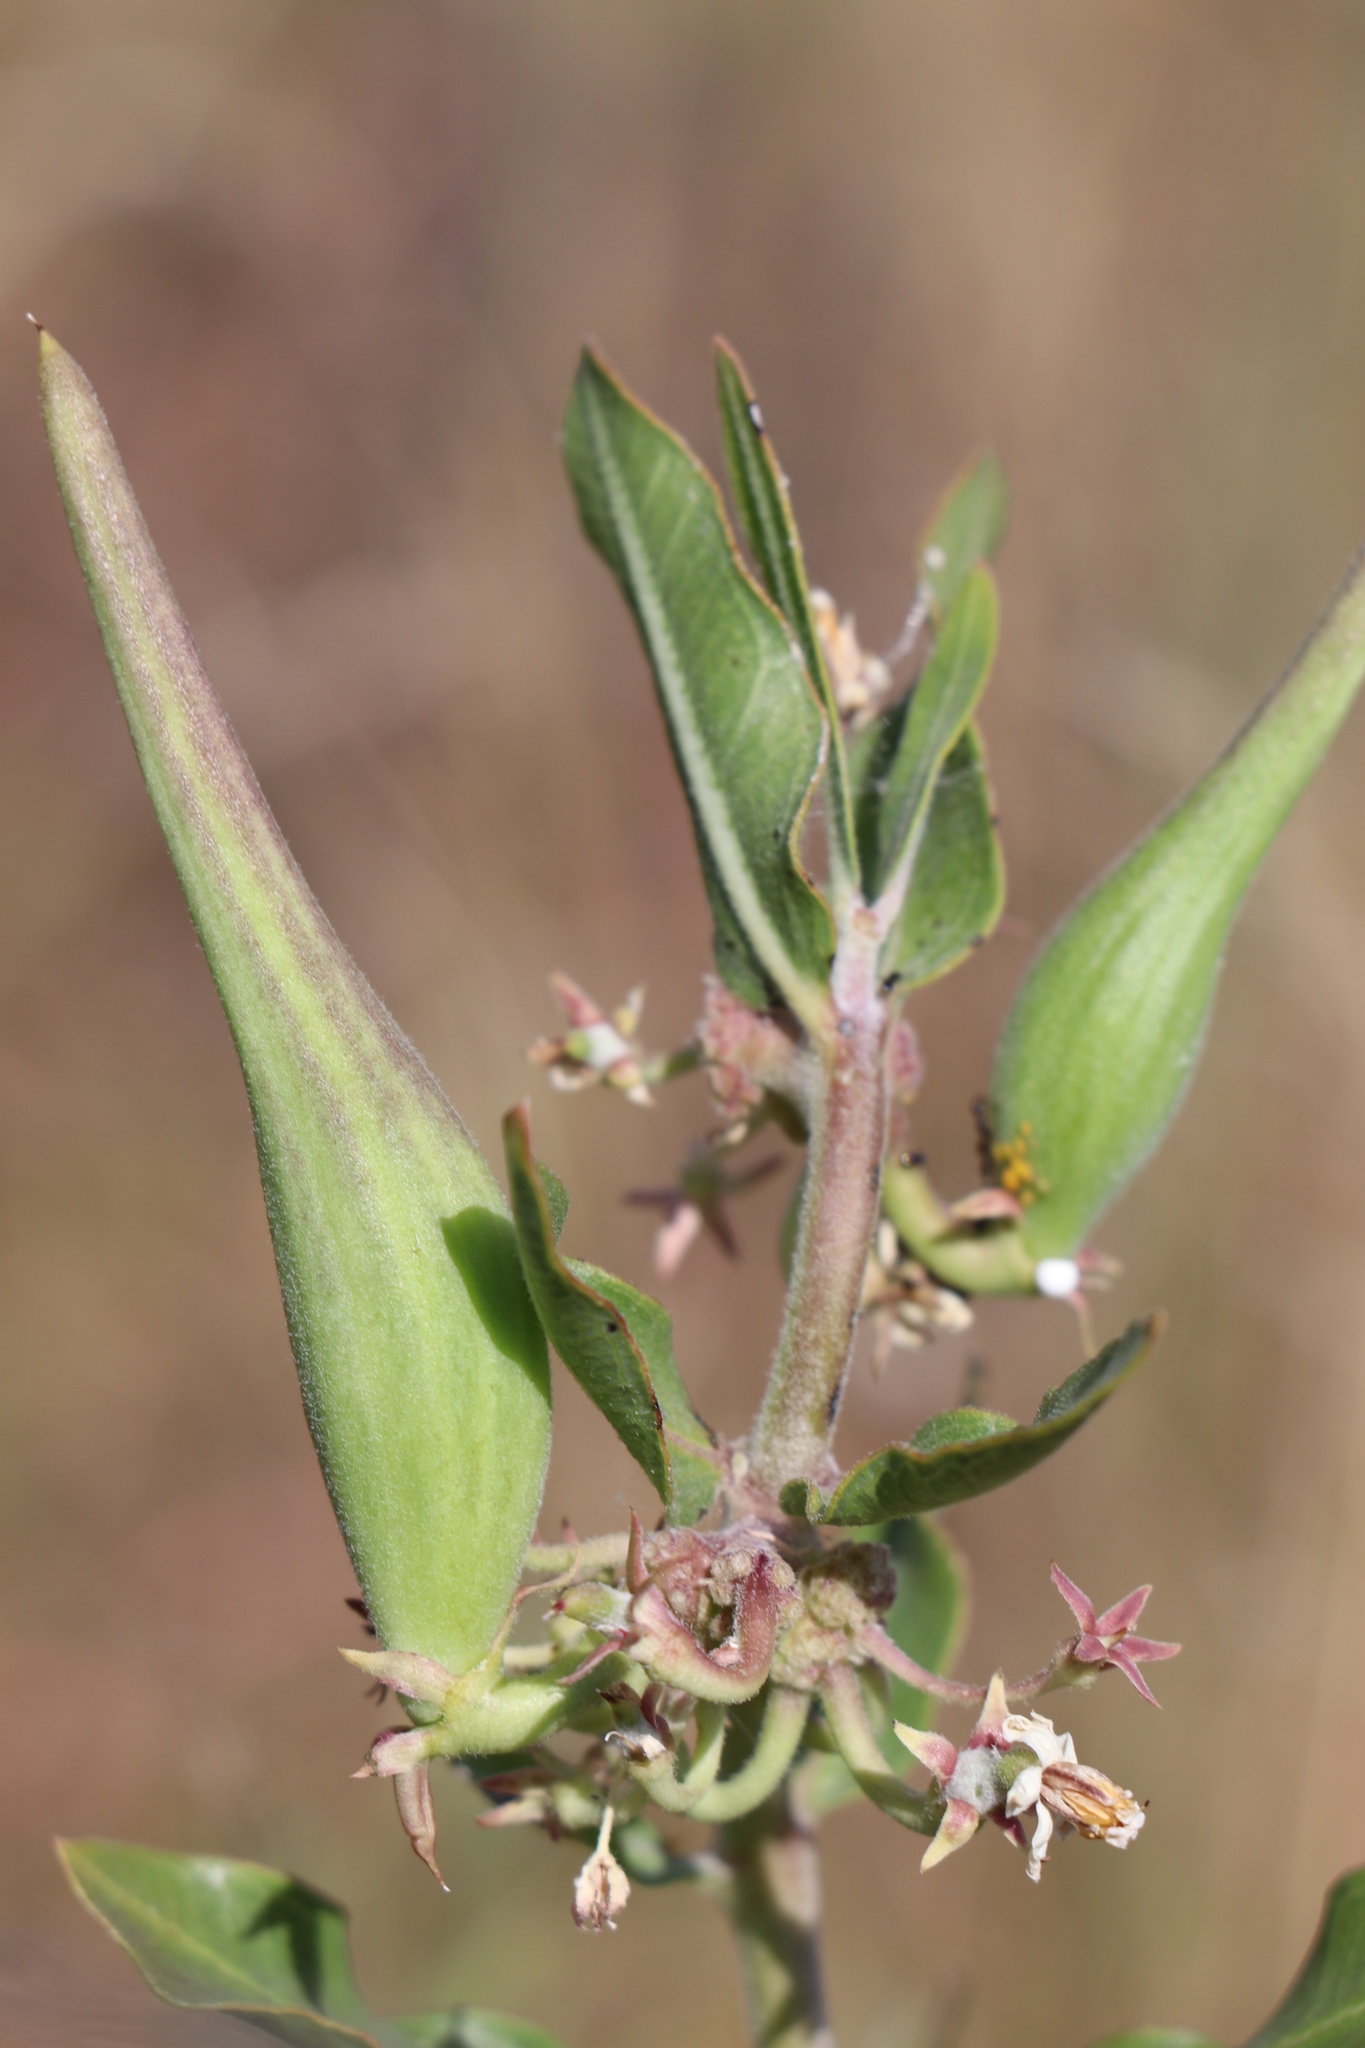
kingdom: Plantae
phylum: Tracheophyta
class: Magnoliopsida
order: Gentianales
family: Apocynaceae
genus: Asclepias
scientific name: Asclepias viridiflora
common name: Green comet milkweed
